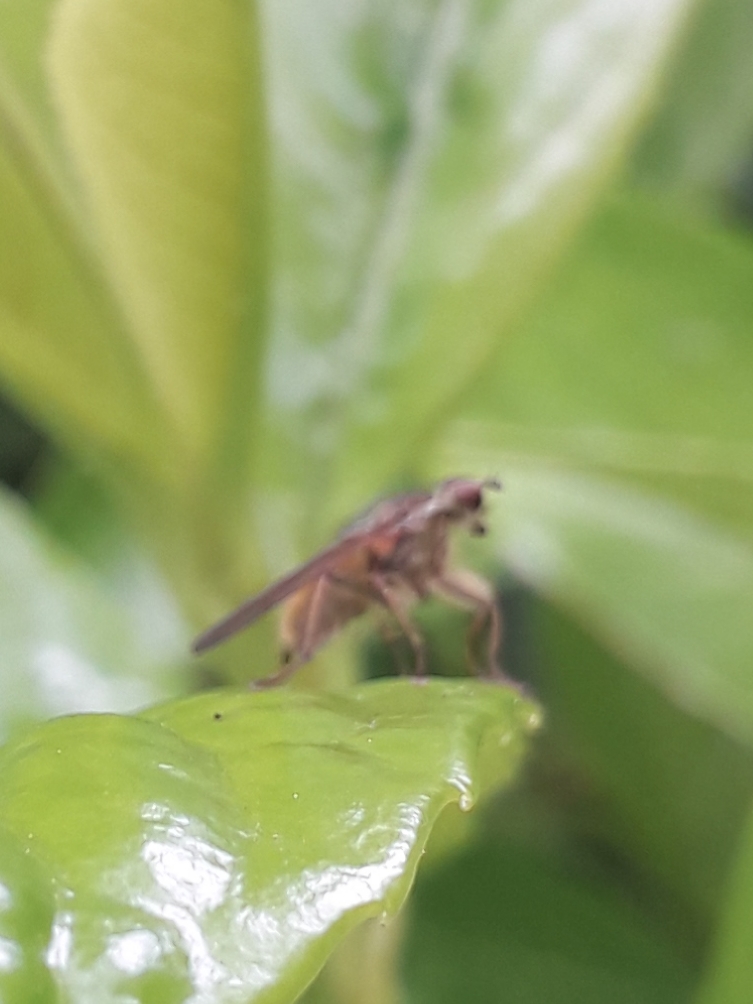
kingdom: Animalia
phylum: Arthropoda
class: Insecta
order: Diptera
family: Scathophagidae
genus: Scathophaga
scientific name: Scathophaga stercoraria
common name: Yellow dung fly
